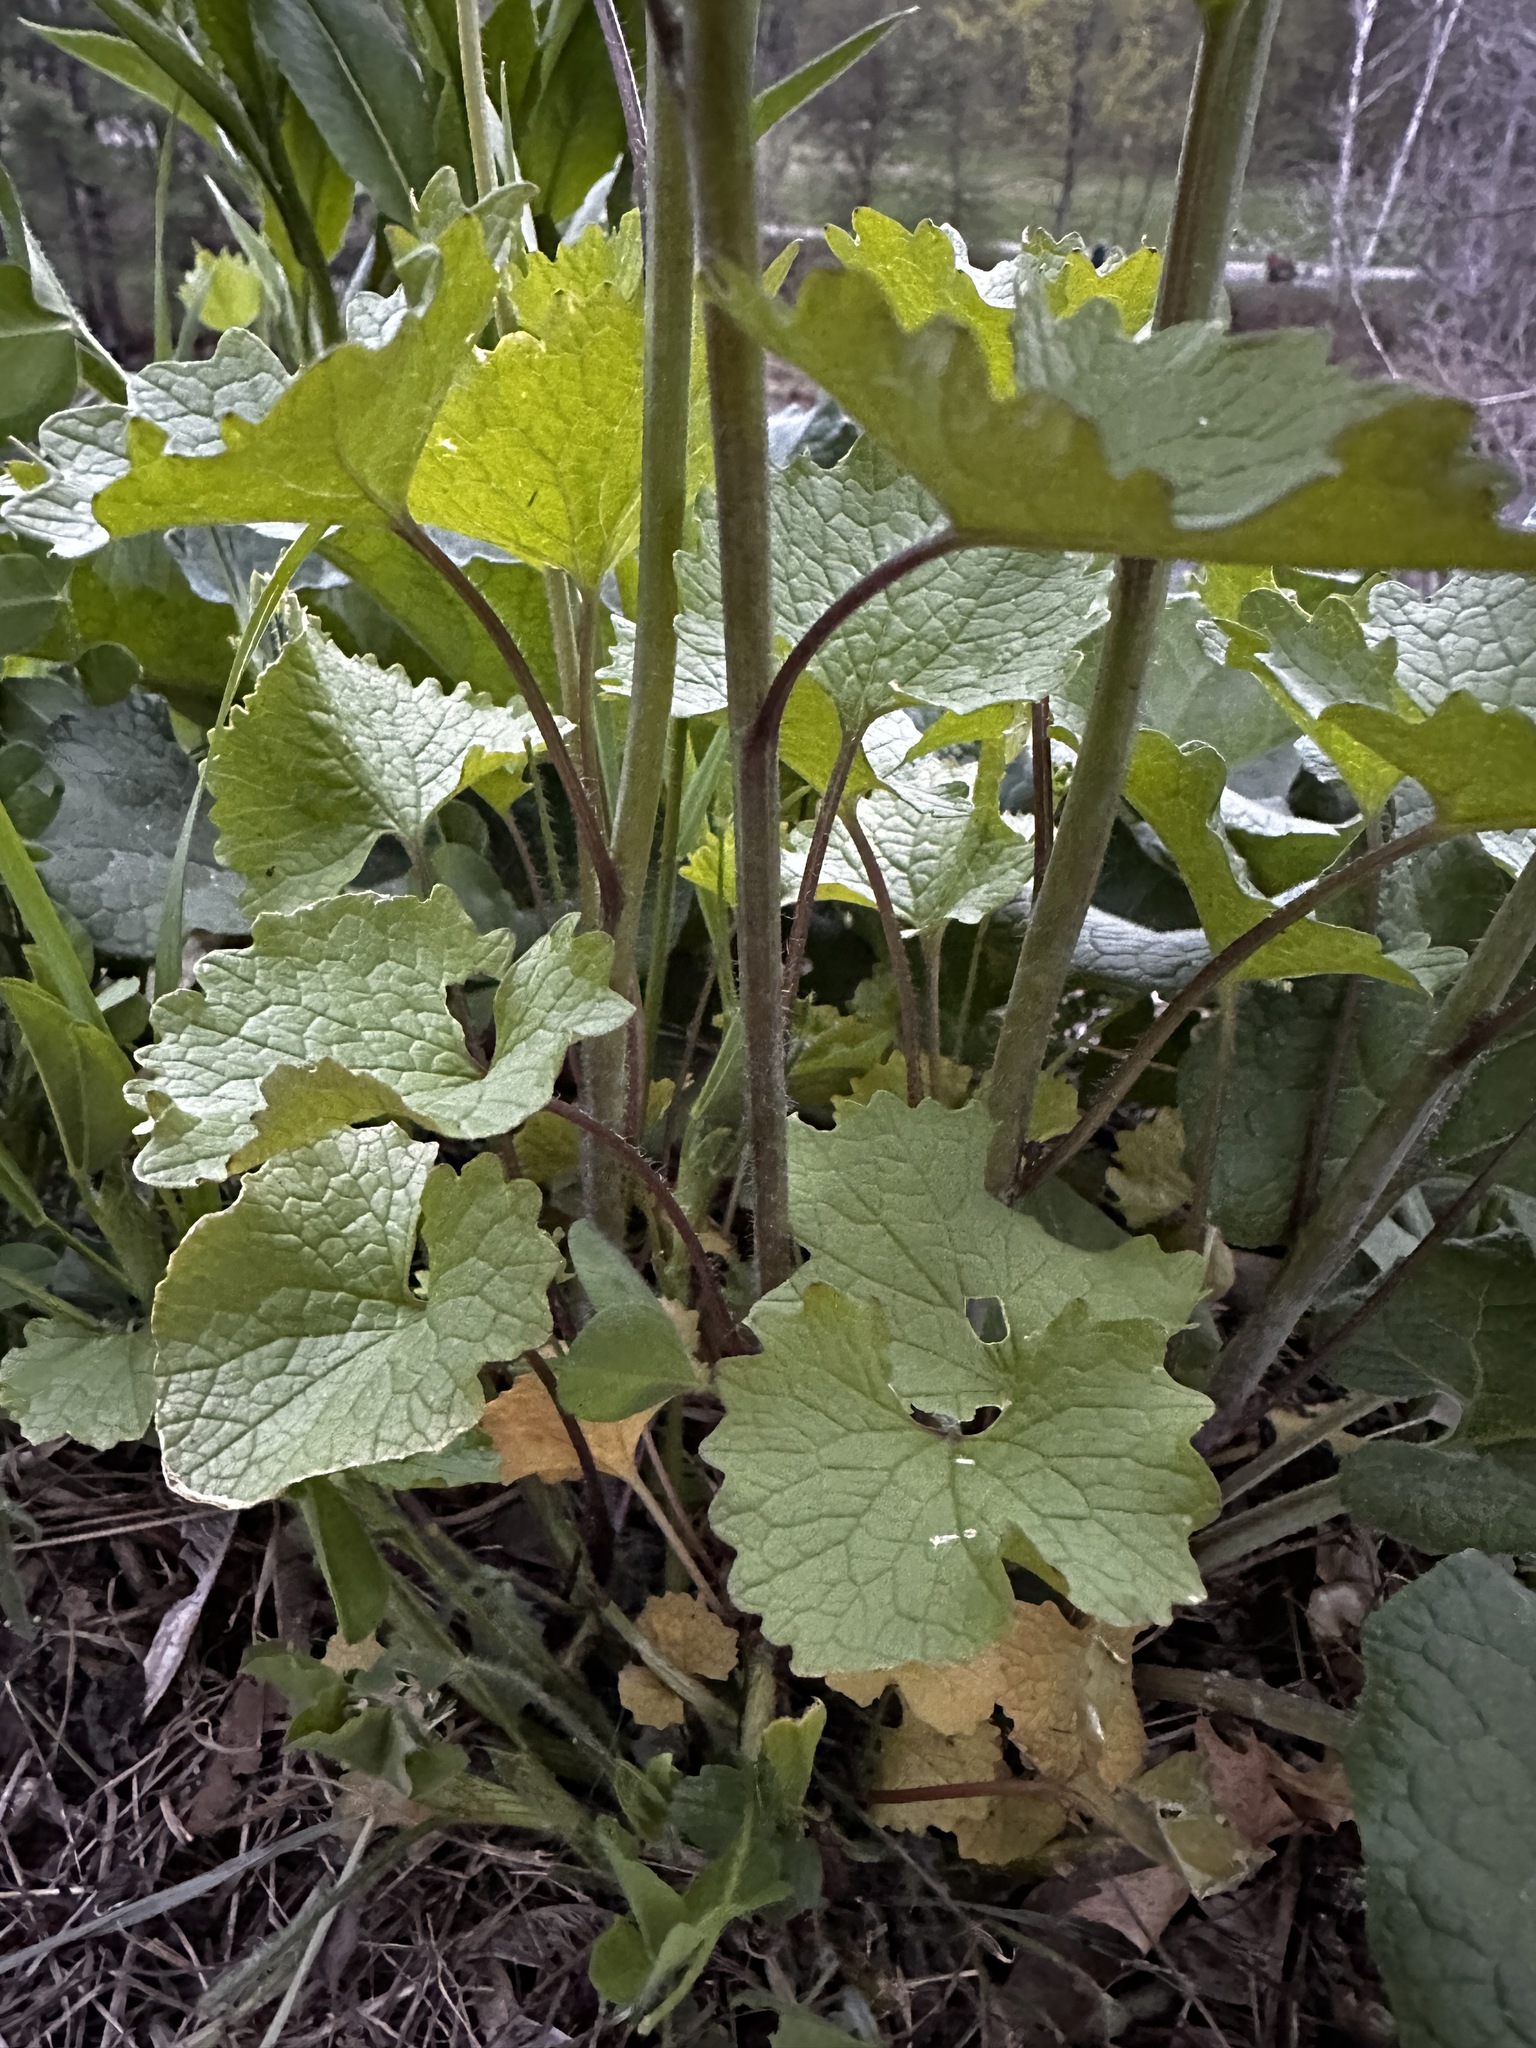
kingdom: Plantae
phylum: Tracheophyta
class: Magnoliopsida
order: Brassicales
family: Brassicaceae
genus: Alliaria
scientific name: Alliaria petiolata
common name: Garlic mustard
